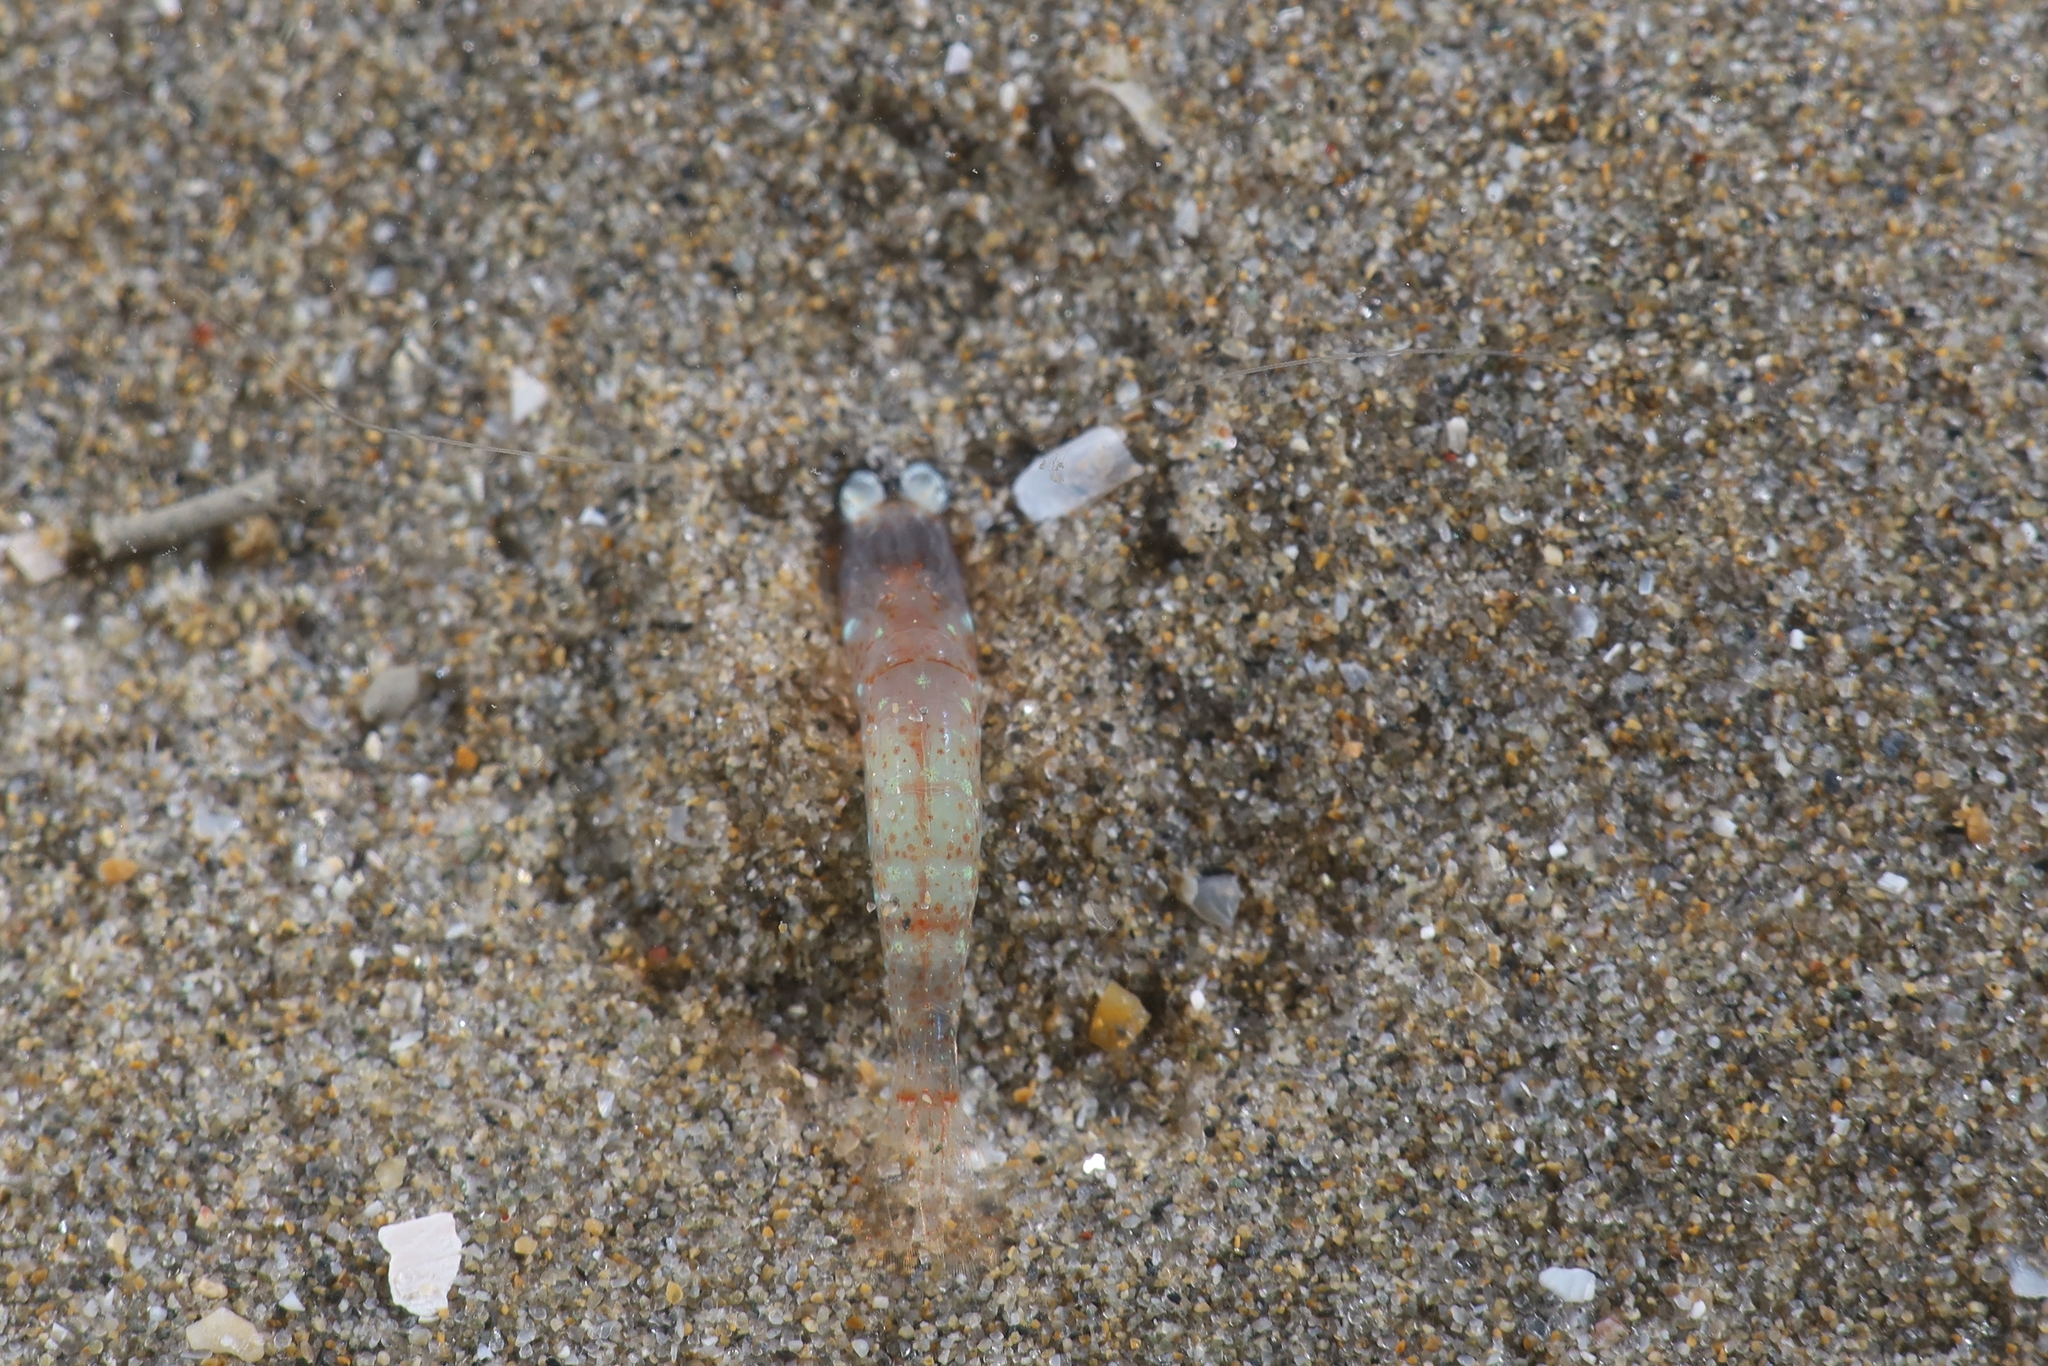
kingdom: Animalia
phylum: Arthropoda
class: Malacostraca
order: Decapoda
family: Processidae
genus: Processa
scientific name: Processa modica
